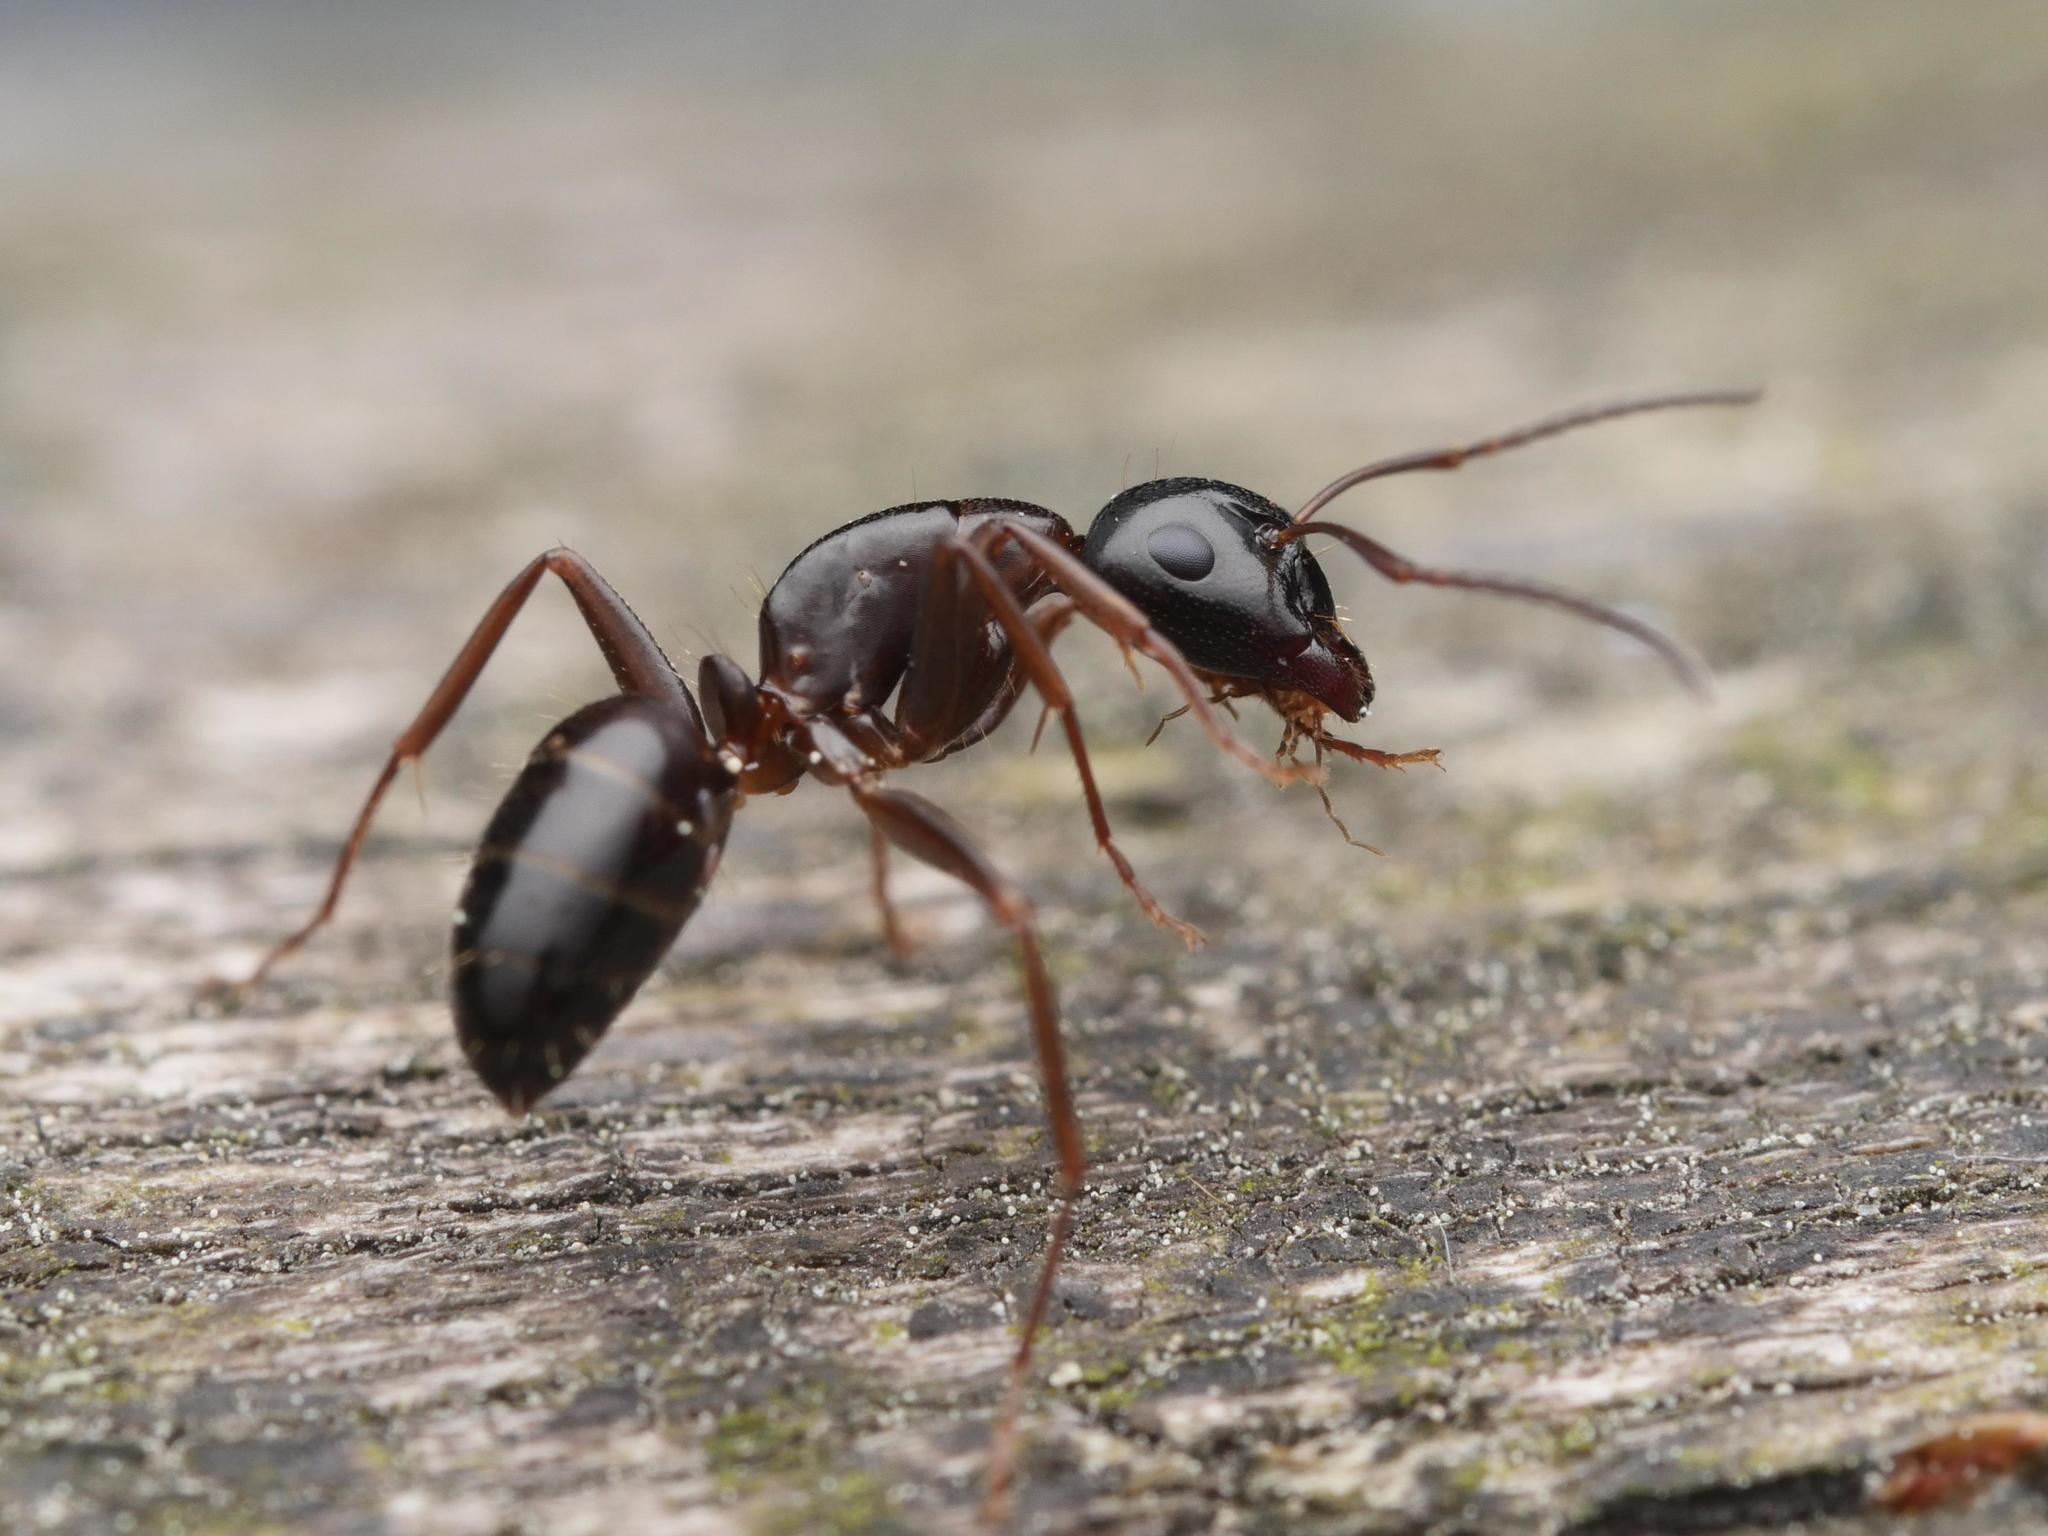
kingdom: Animalia
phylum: Arthropoda
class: Insecta
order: Hymenoptera
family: Formicidae
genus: Camponotus
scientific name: Camponotus fallax
